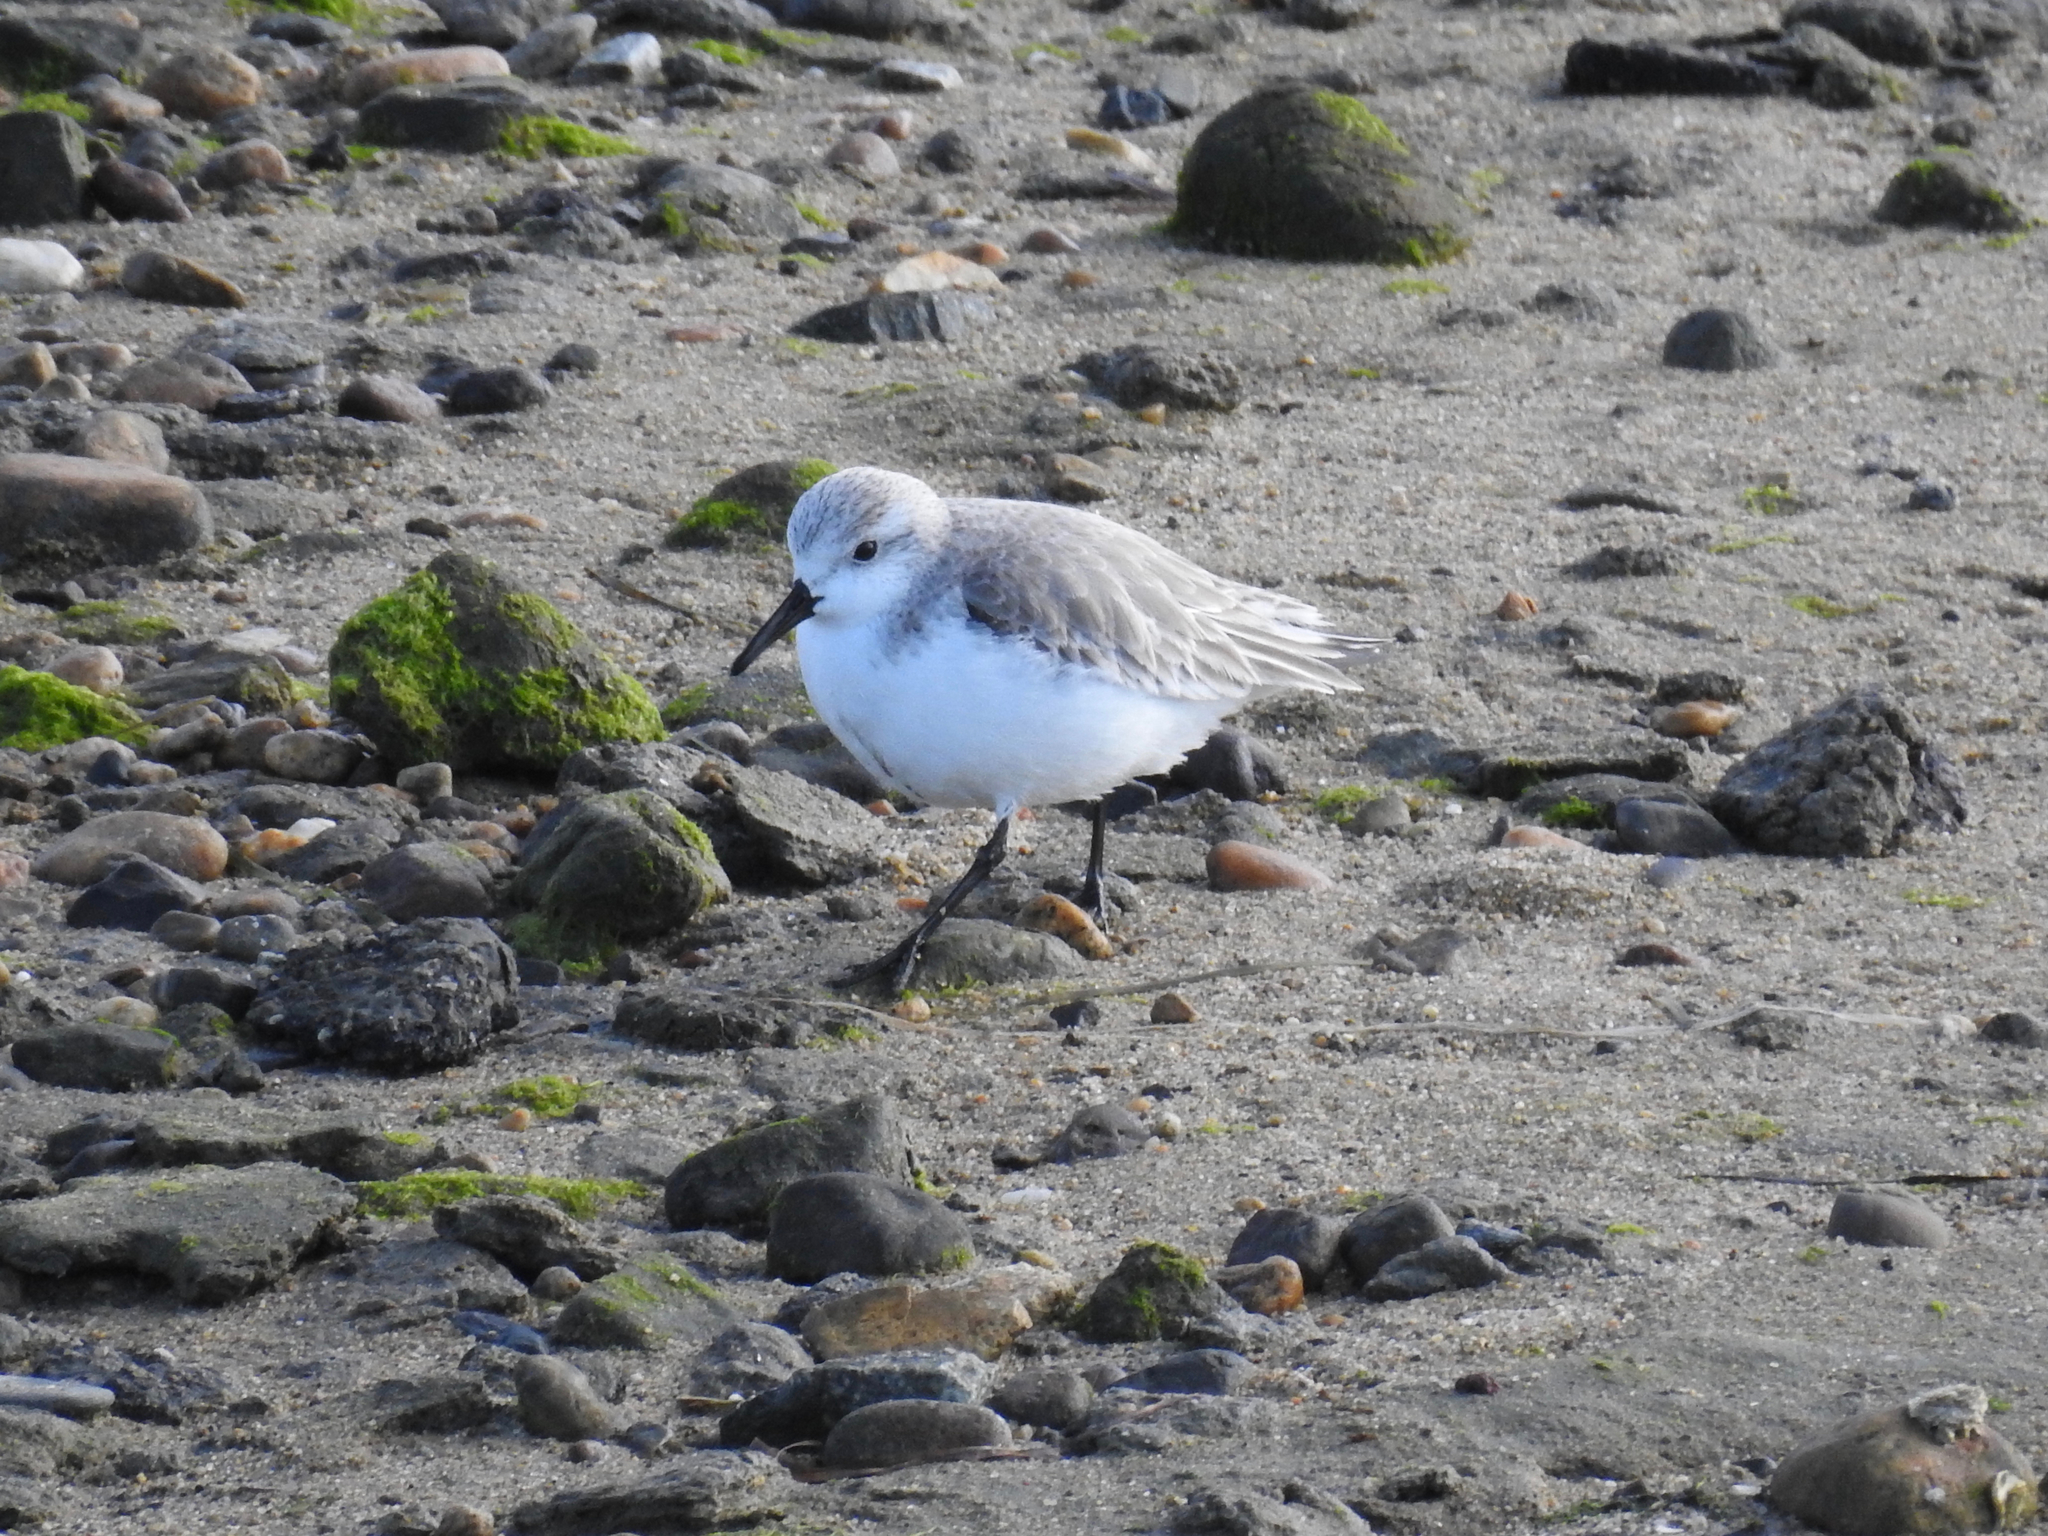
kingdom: Animalia
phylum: Chordata
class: Aves
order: Charadriiformes
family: Scolopacidae
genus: Calidris
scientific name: Calidris alba
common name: Sanderling
